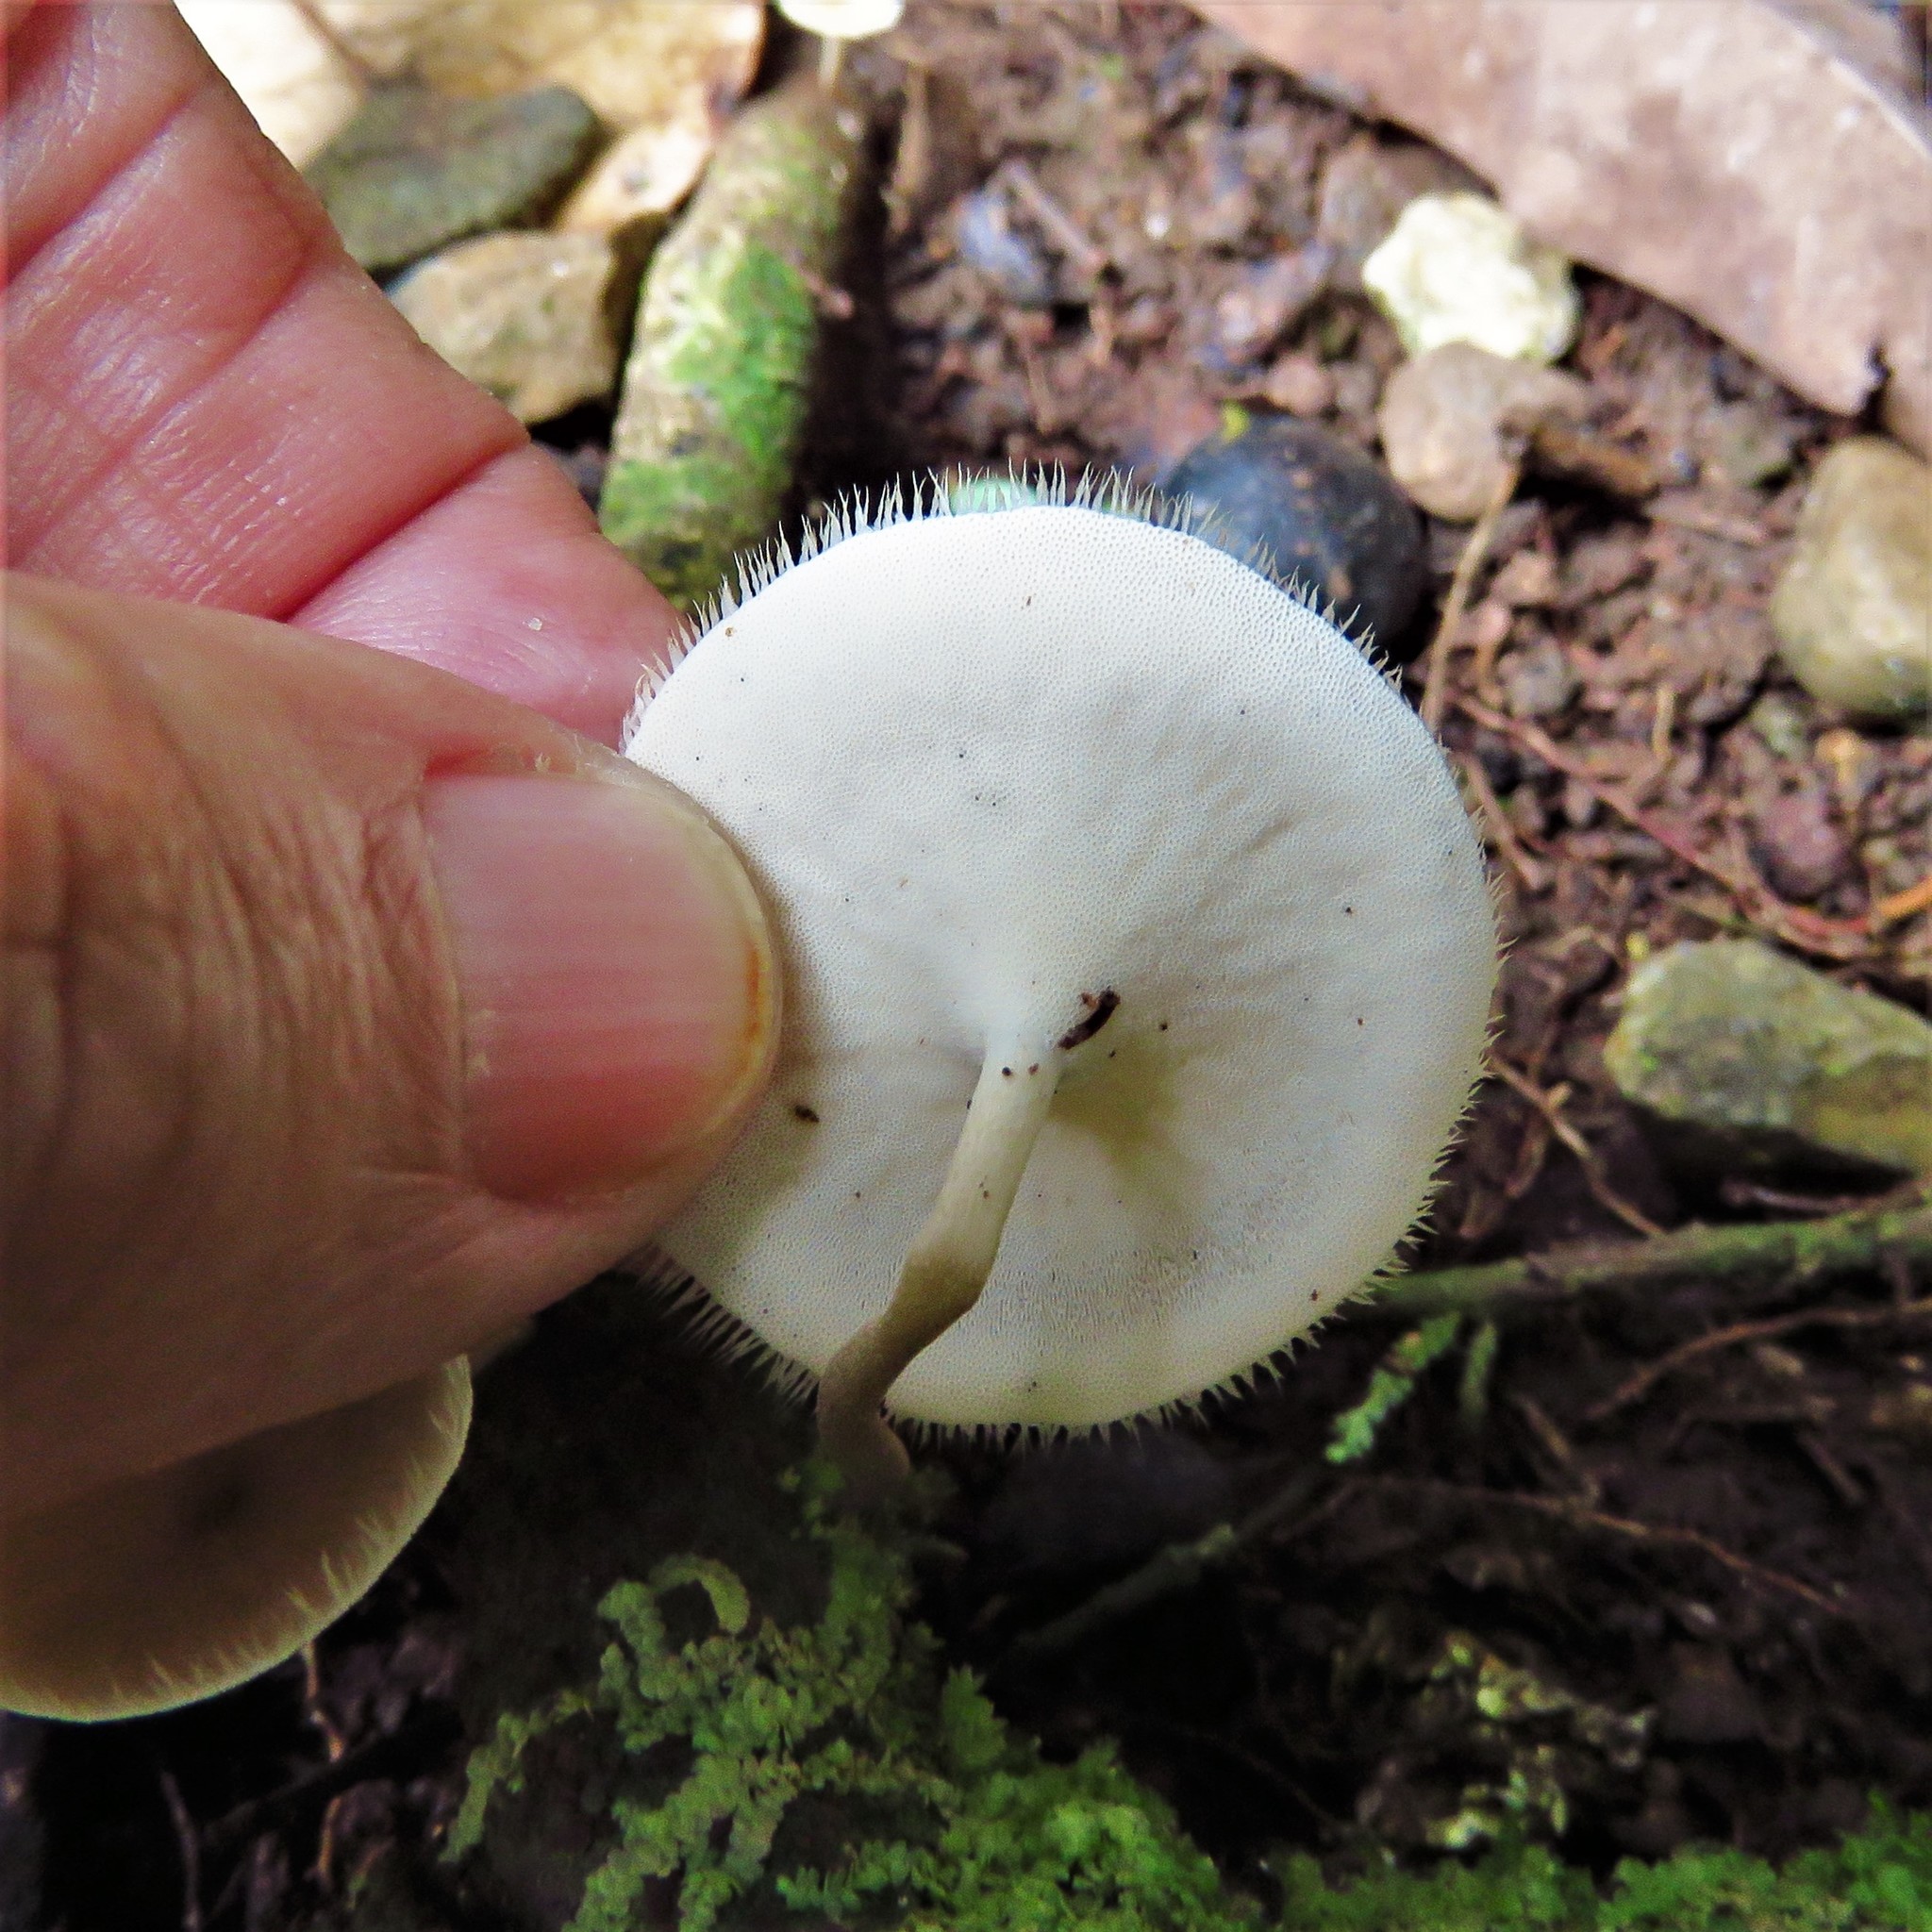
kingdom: Fungi
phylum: Basidiomycota
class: Agaricomycetes
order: Polyporales
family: Polyporaceae
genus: Lentinus
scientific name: Lentinus flexipes
